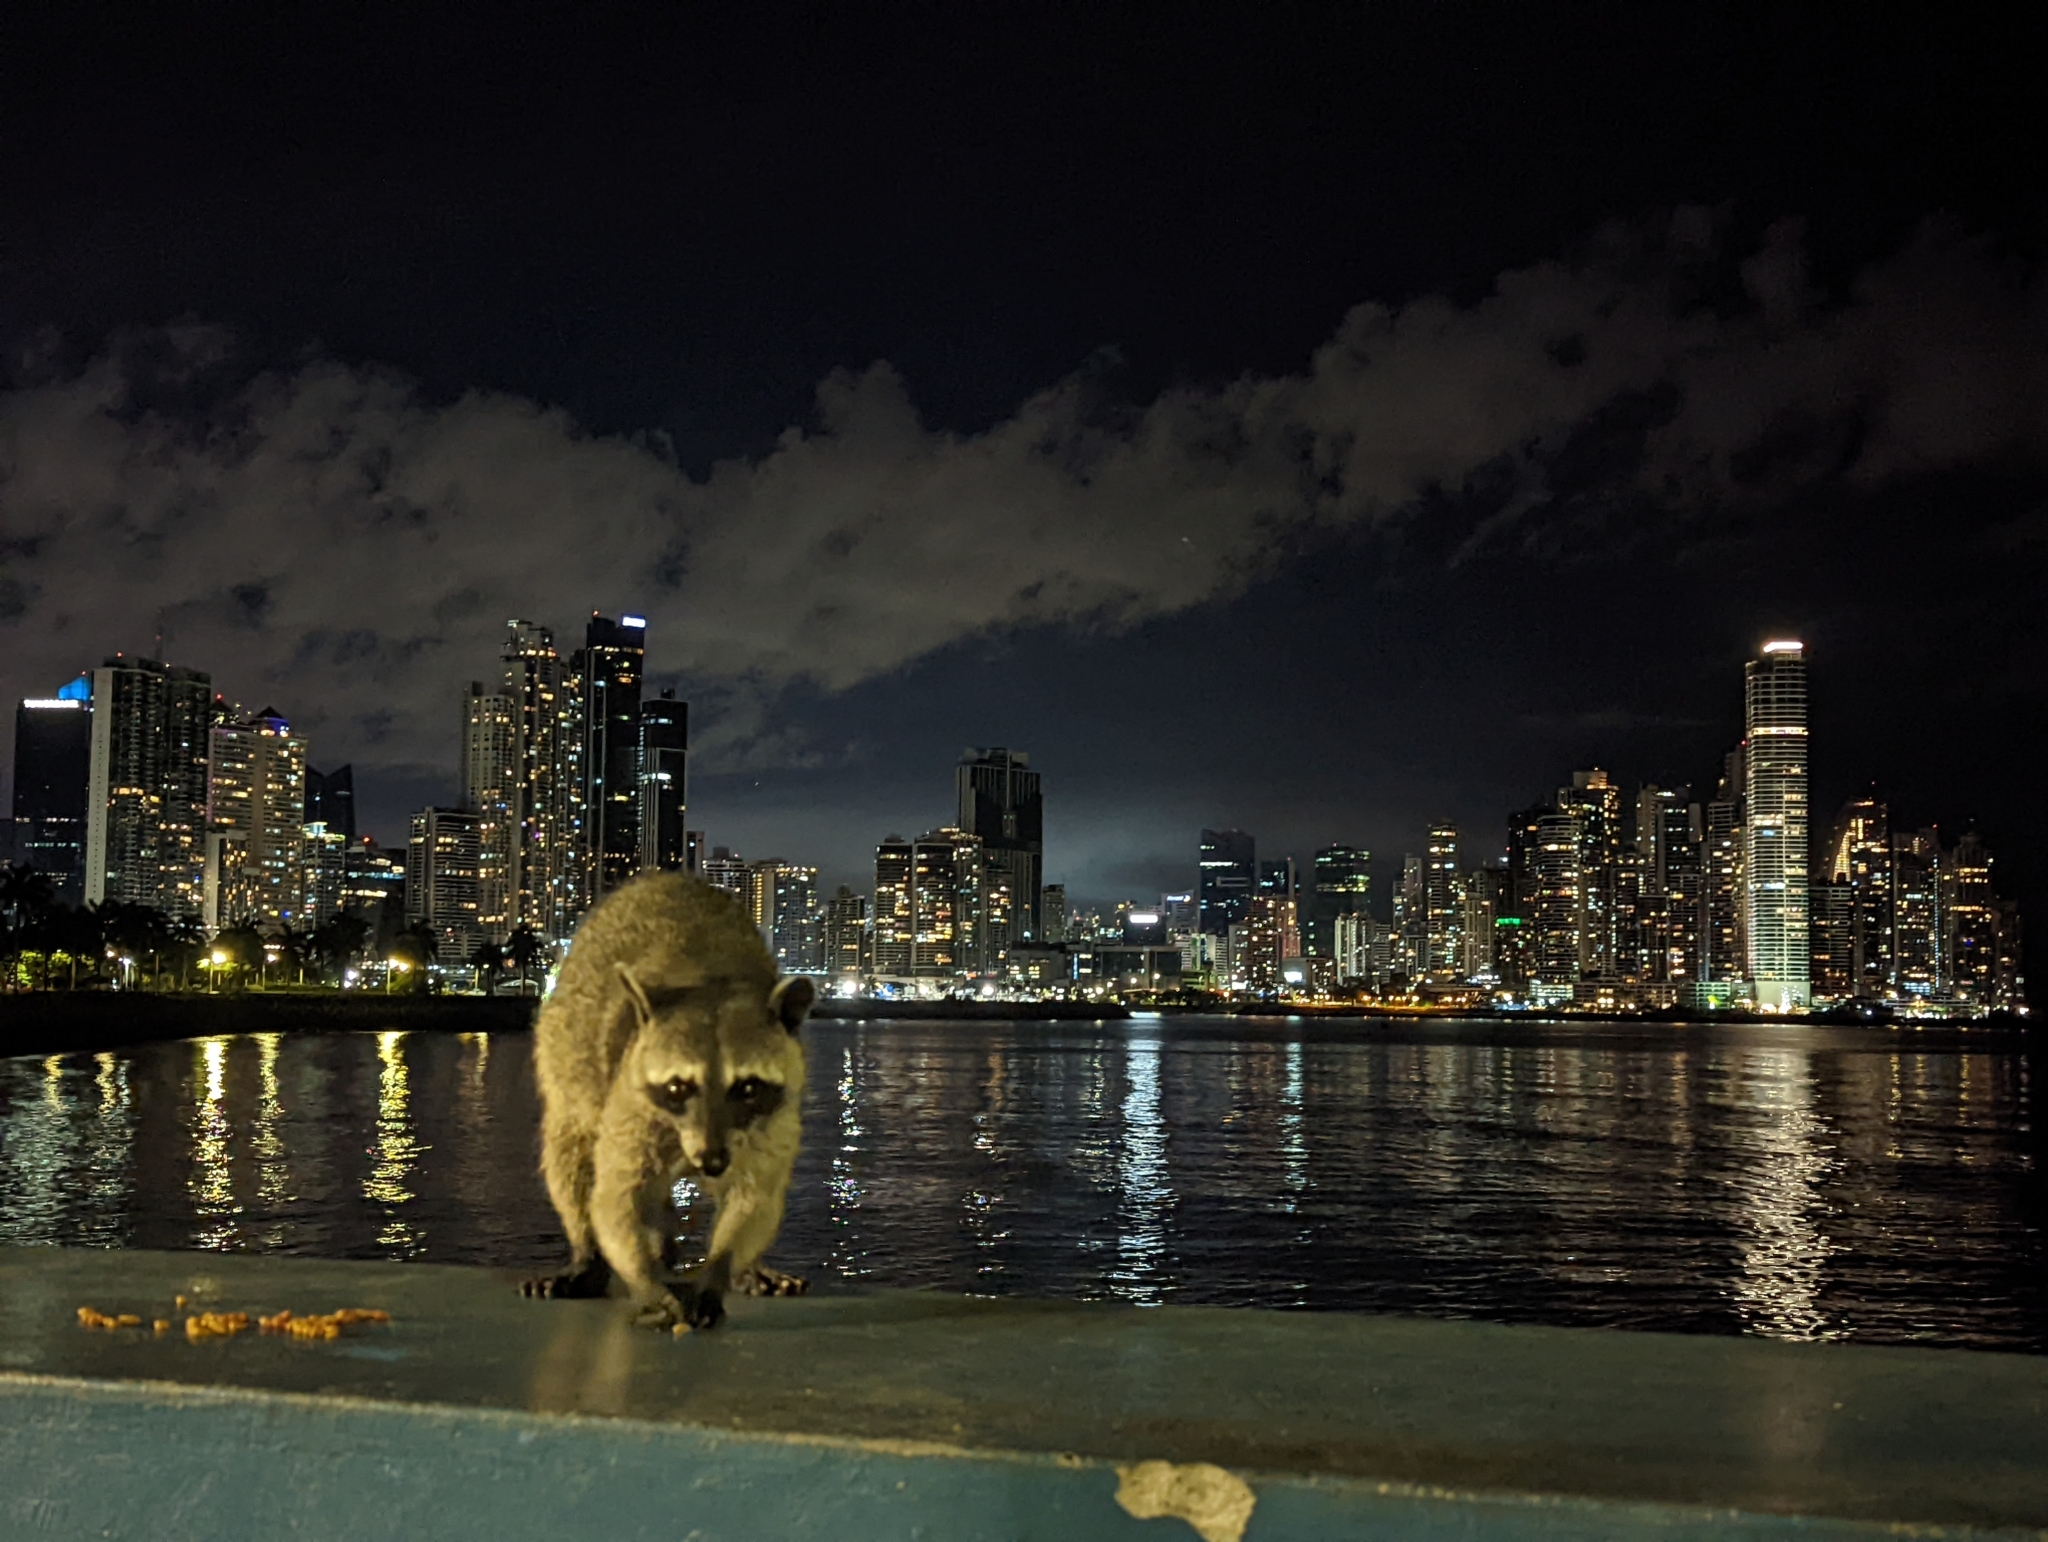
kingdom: Animalia
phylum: Chordata
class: Mammalia
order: Carnivora
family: Procyonidae
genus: Procyon
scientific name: Procyon lotor
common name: Raccoon
